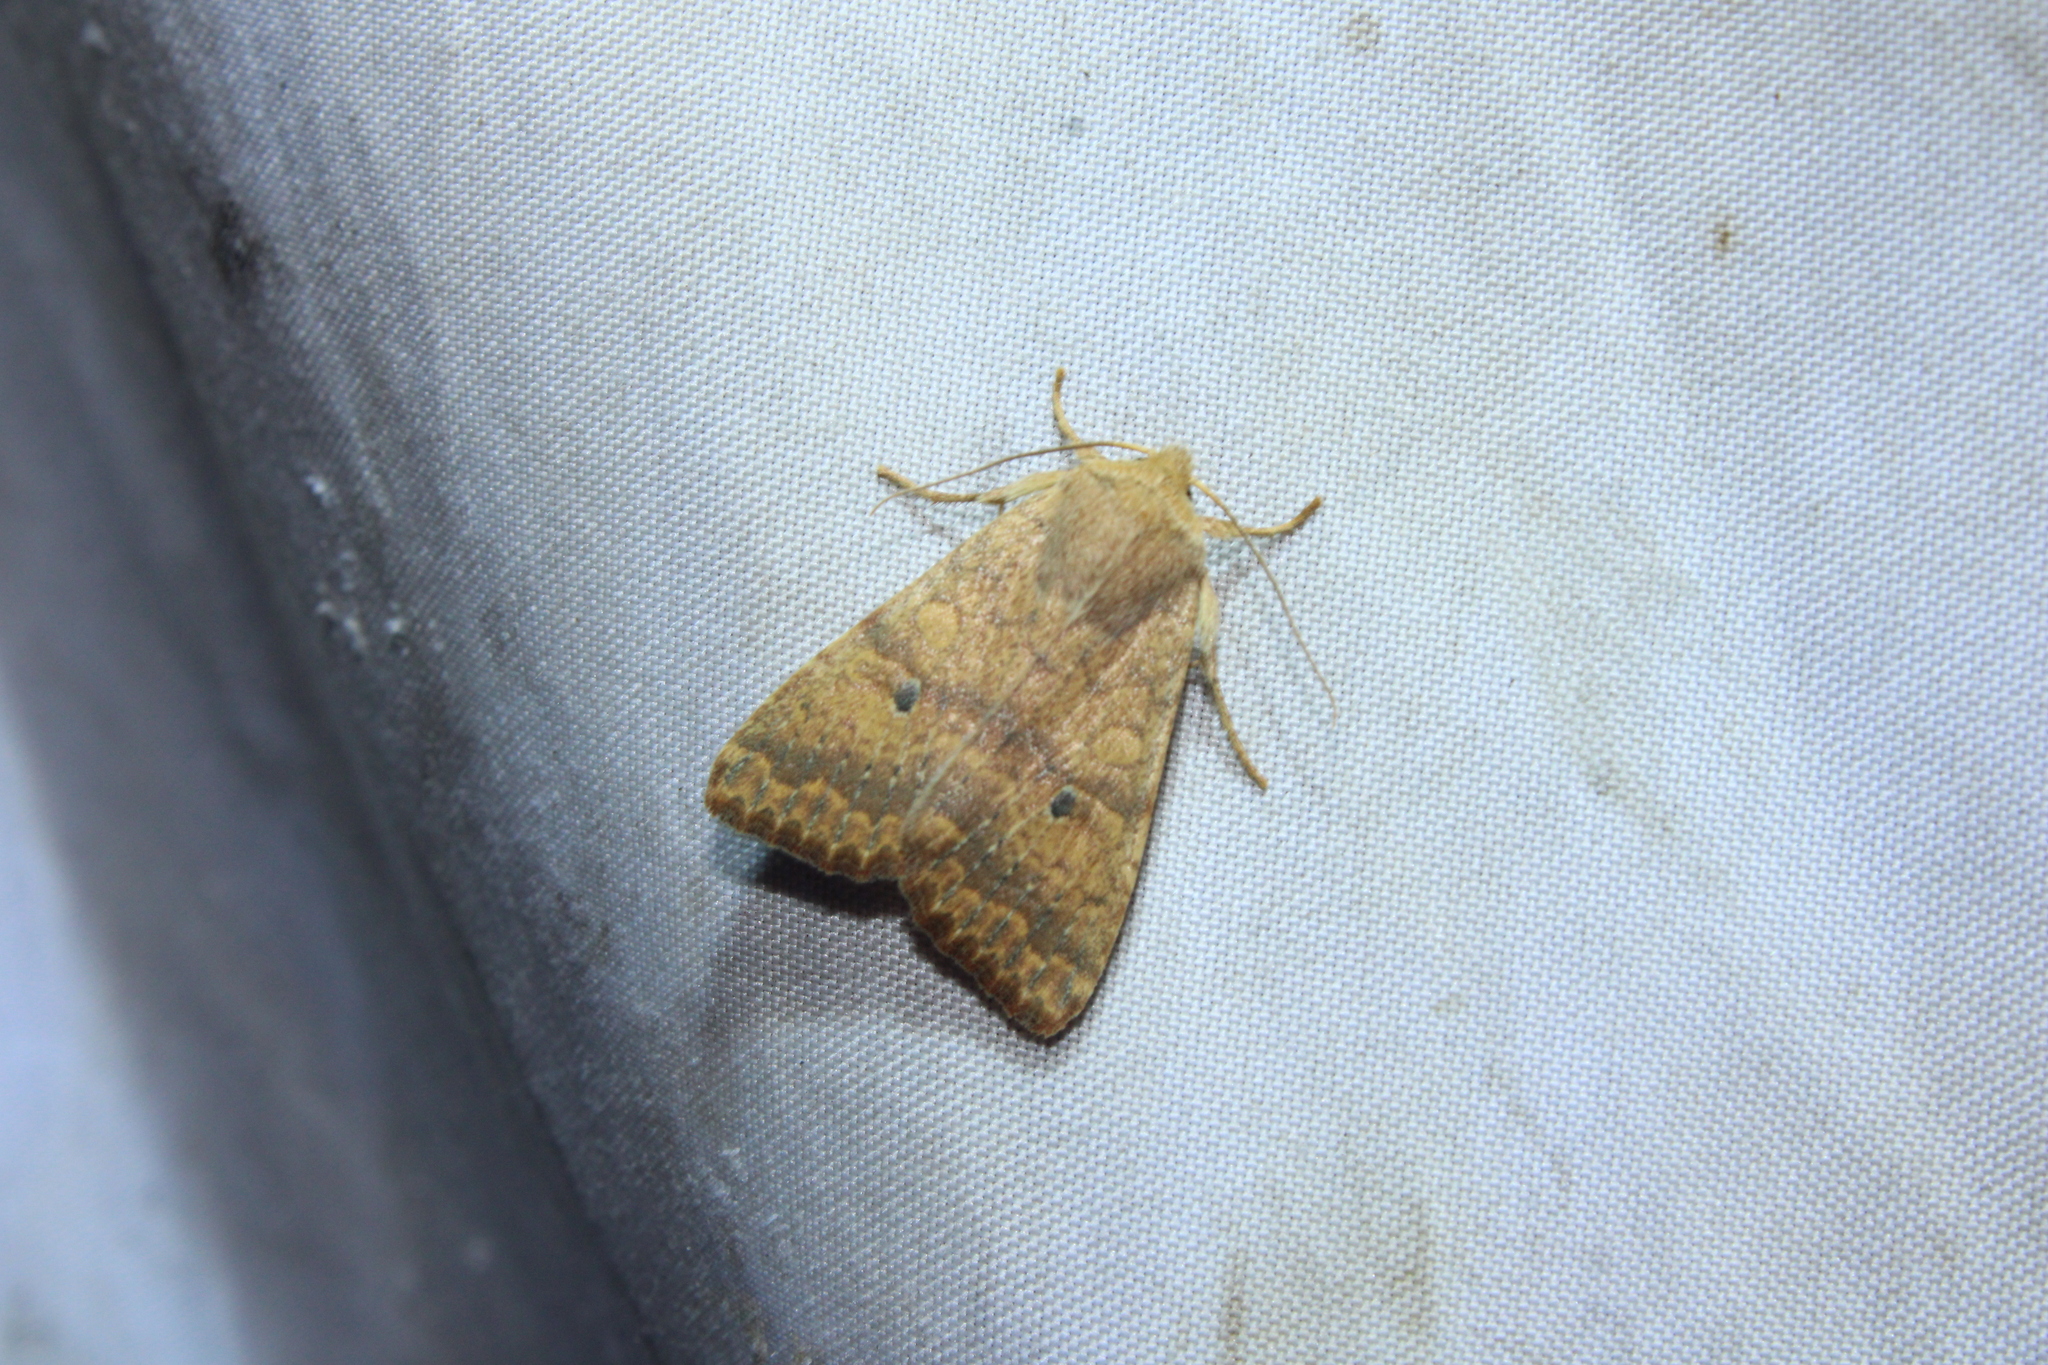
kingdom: Animalia
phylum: Arthropoda
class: Insecta
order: Lepidoptera
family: Noctuidae
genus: Agrochola
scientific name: Agrochola bicolorago
